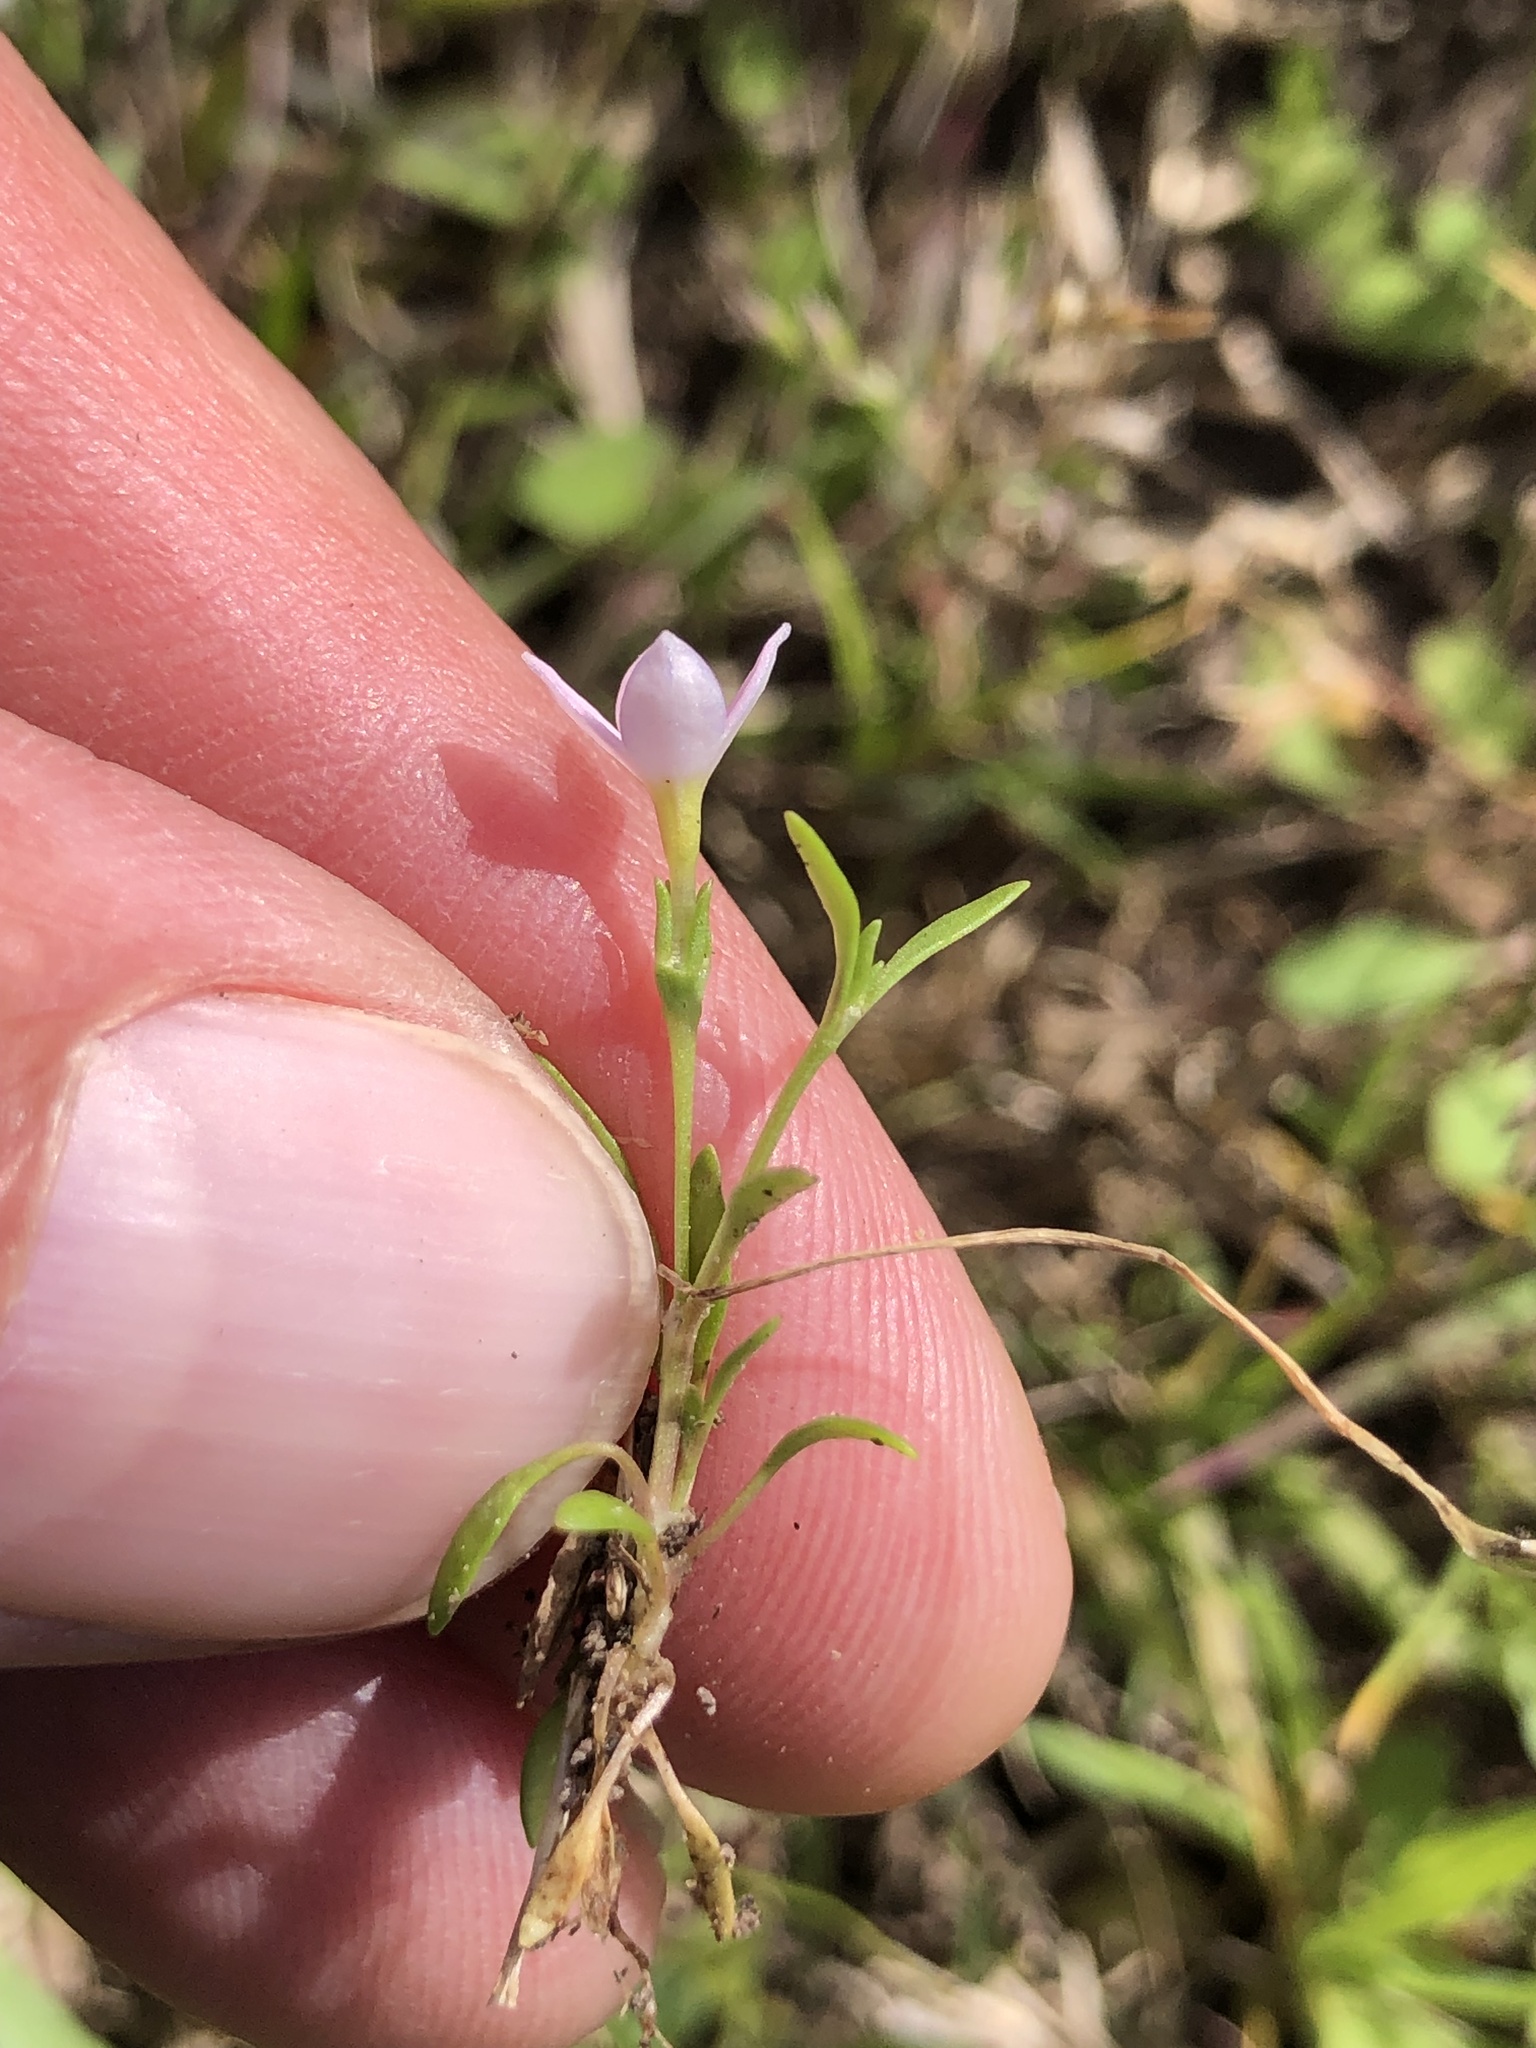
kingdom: Plantae
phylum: Tracheophyta
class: Magnoliopsida
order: Gentianales
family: Rubiaceae
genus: Houstonia
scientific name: Houstonia rosea
